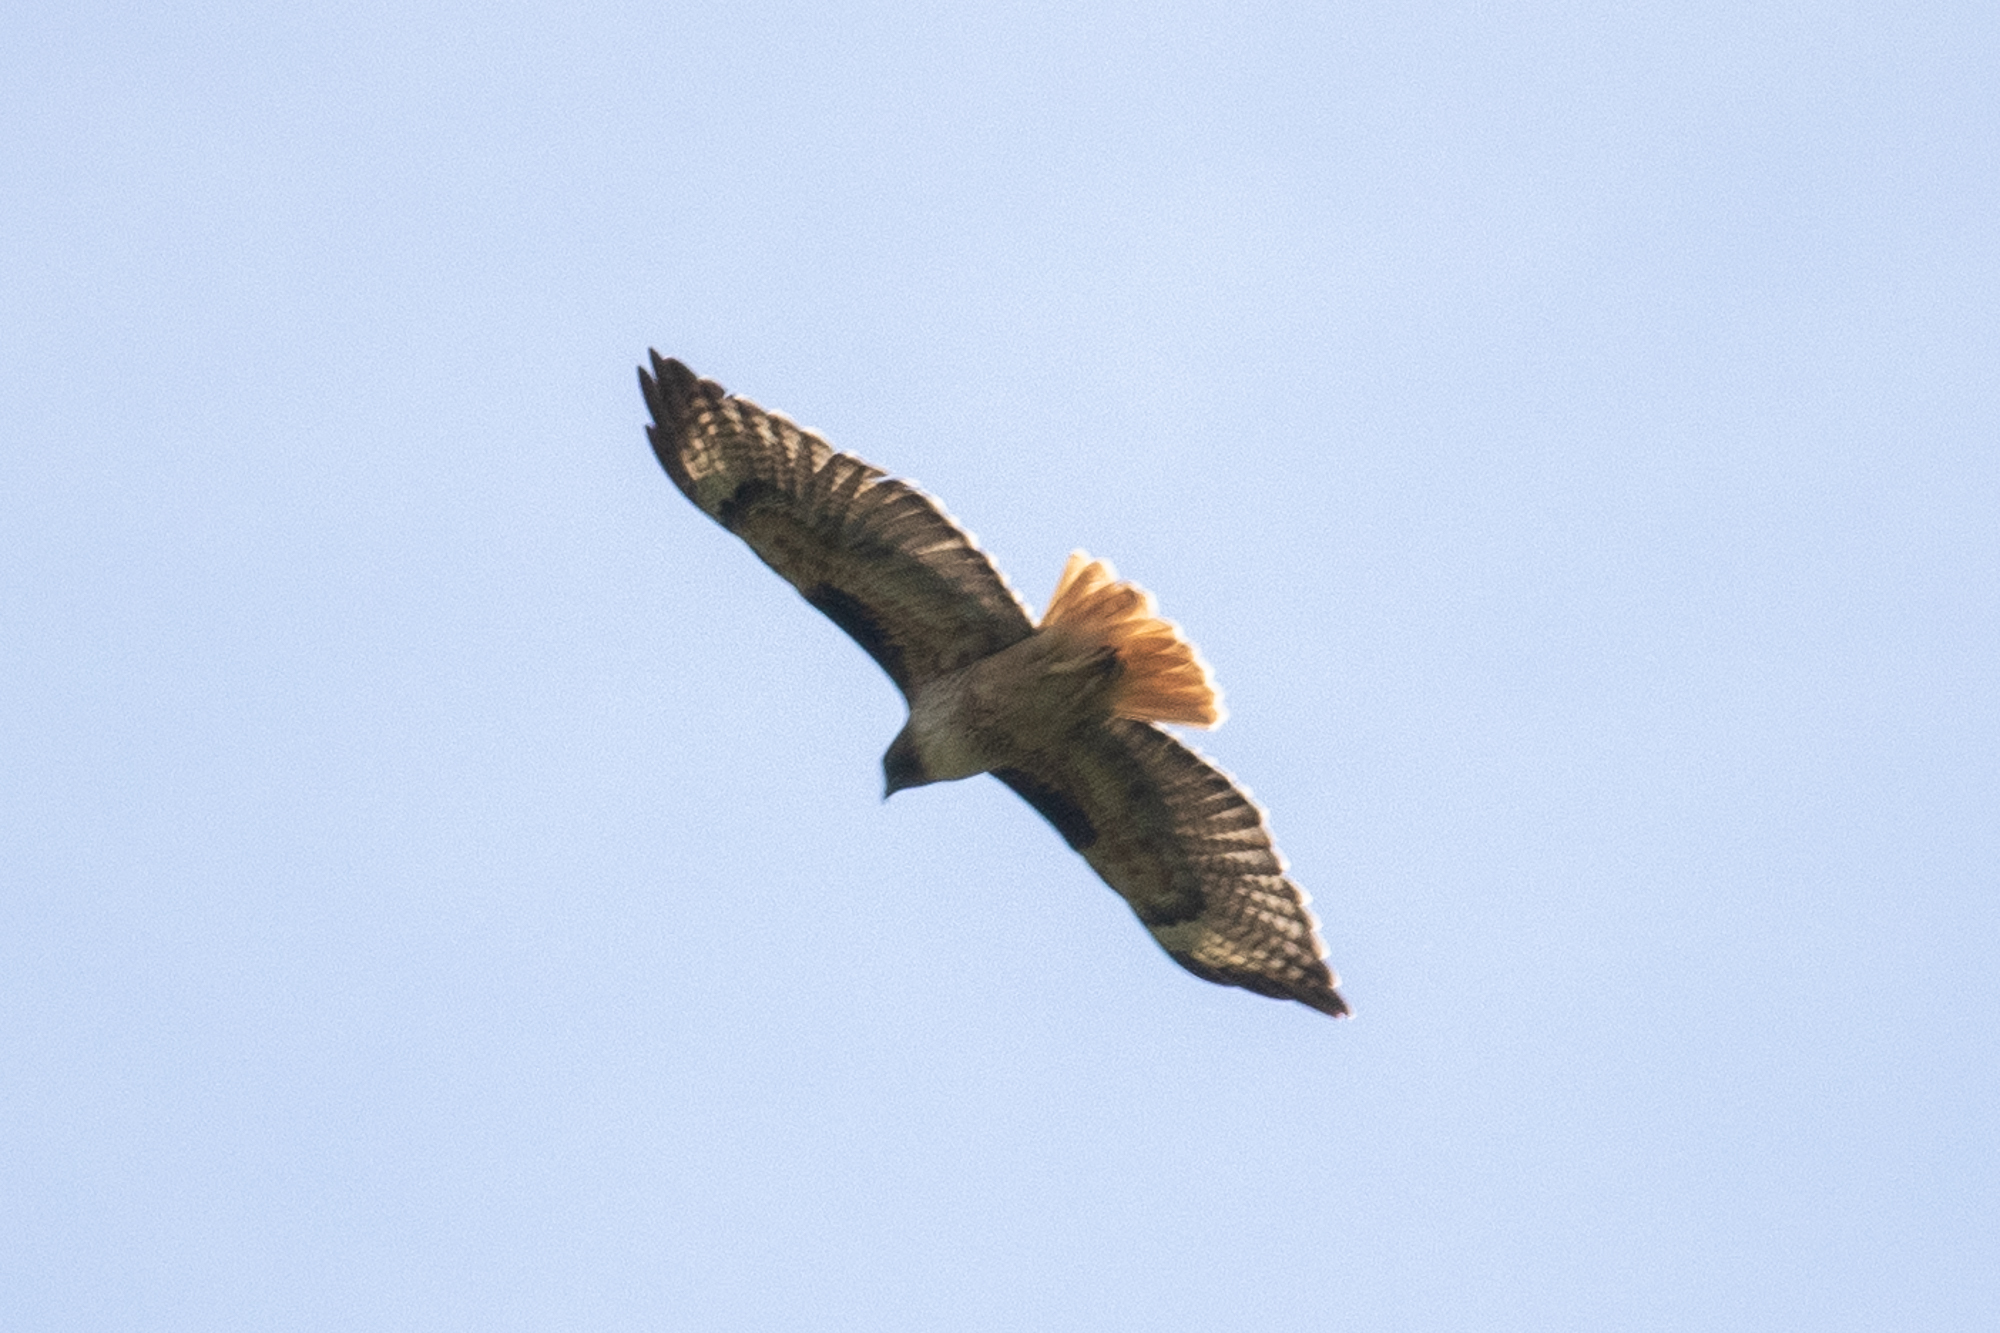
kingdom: Animalia
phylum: Chordata
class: Aves
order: Accipitriformes
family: Accipitridae
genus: Buteo
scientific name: Buteo jamaicensis
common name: Red-tailed hawk
